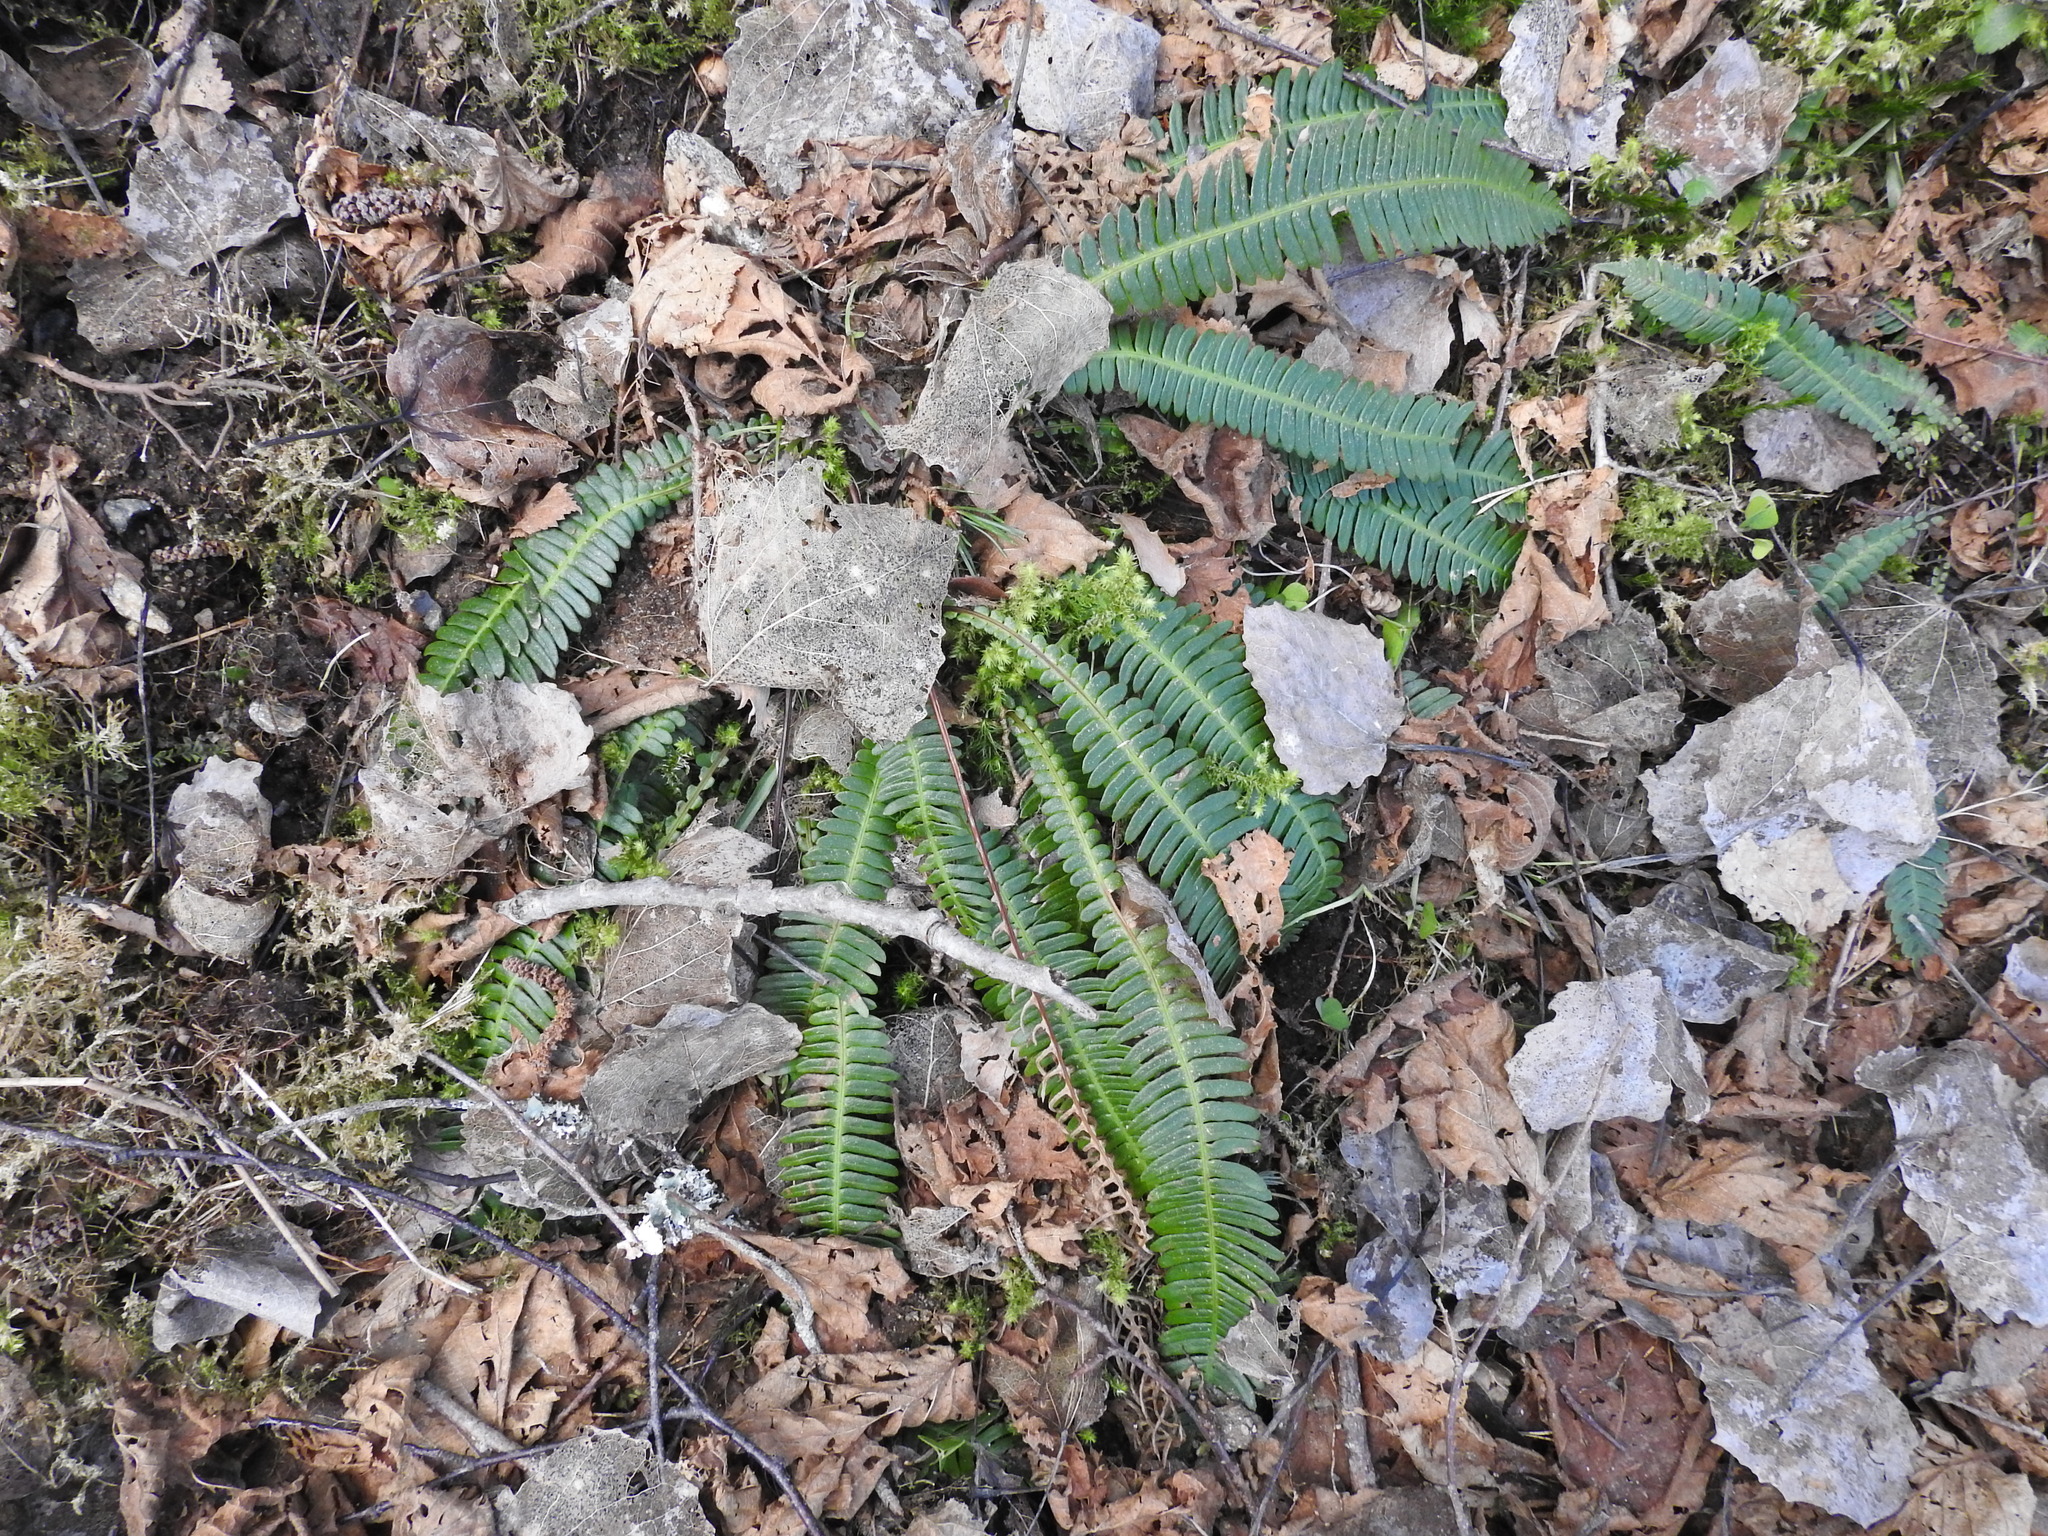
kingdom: Plantae
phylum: Tracheophyta
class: Polypodiopsida
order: Polypodiales
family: Blechnaceae
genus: Struthiopteris
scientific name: Struthiopteris spicant
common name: Deer fern
